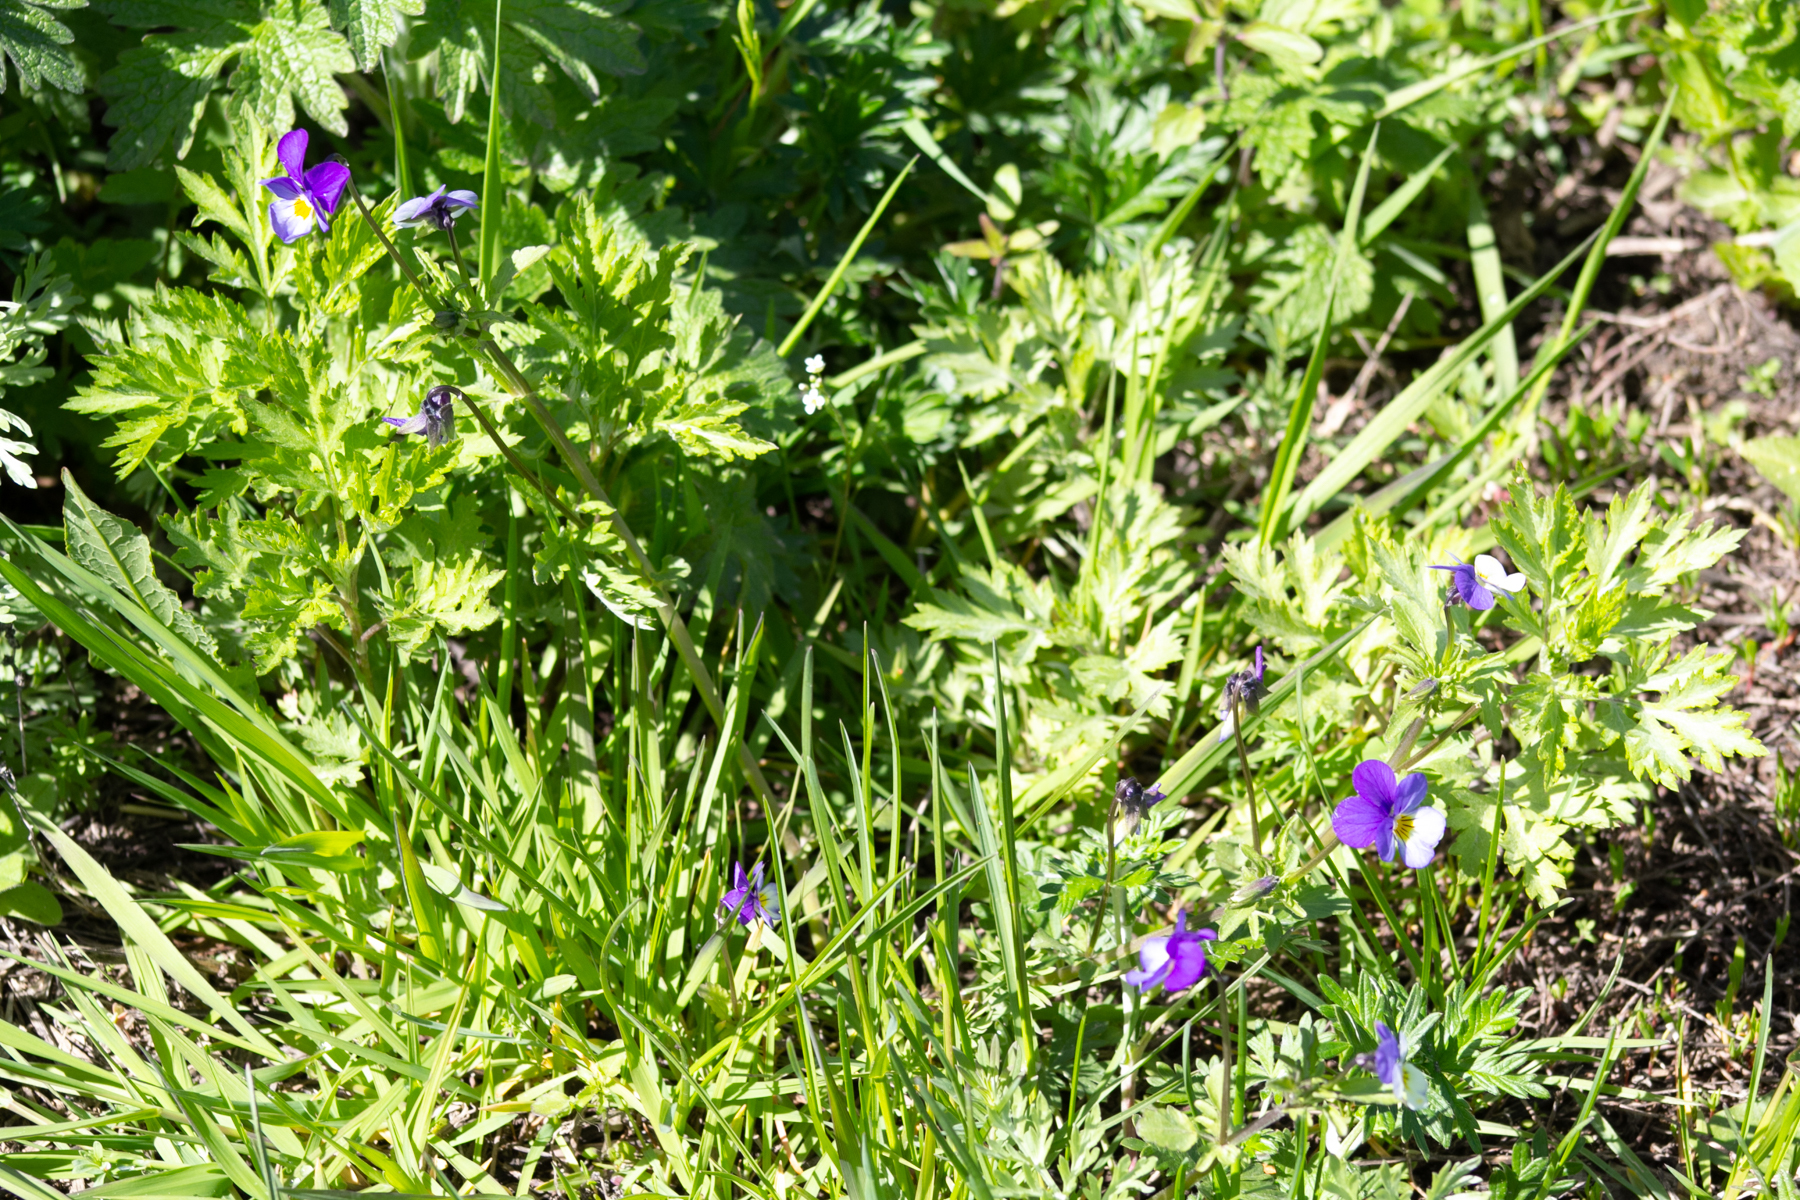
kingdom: Plantae
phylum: Tracheophyta
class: Magnoliopsida
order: Malpighiales
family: Violaceae
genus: Viola
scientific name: Viola tricolor
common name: Pansy
